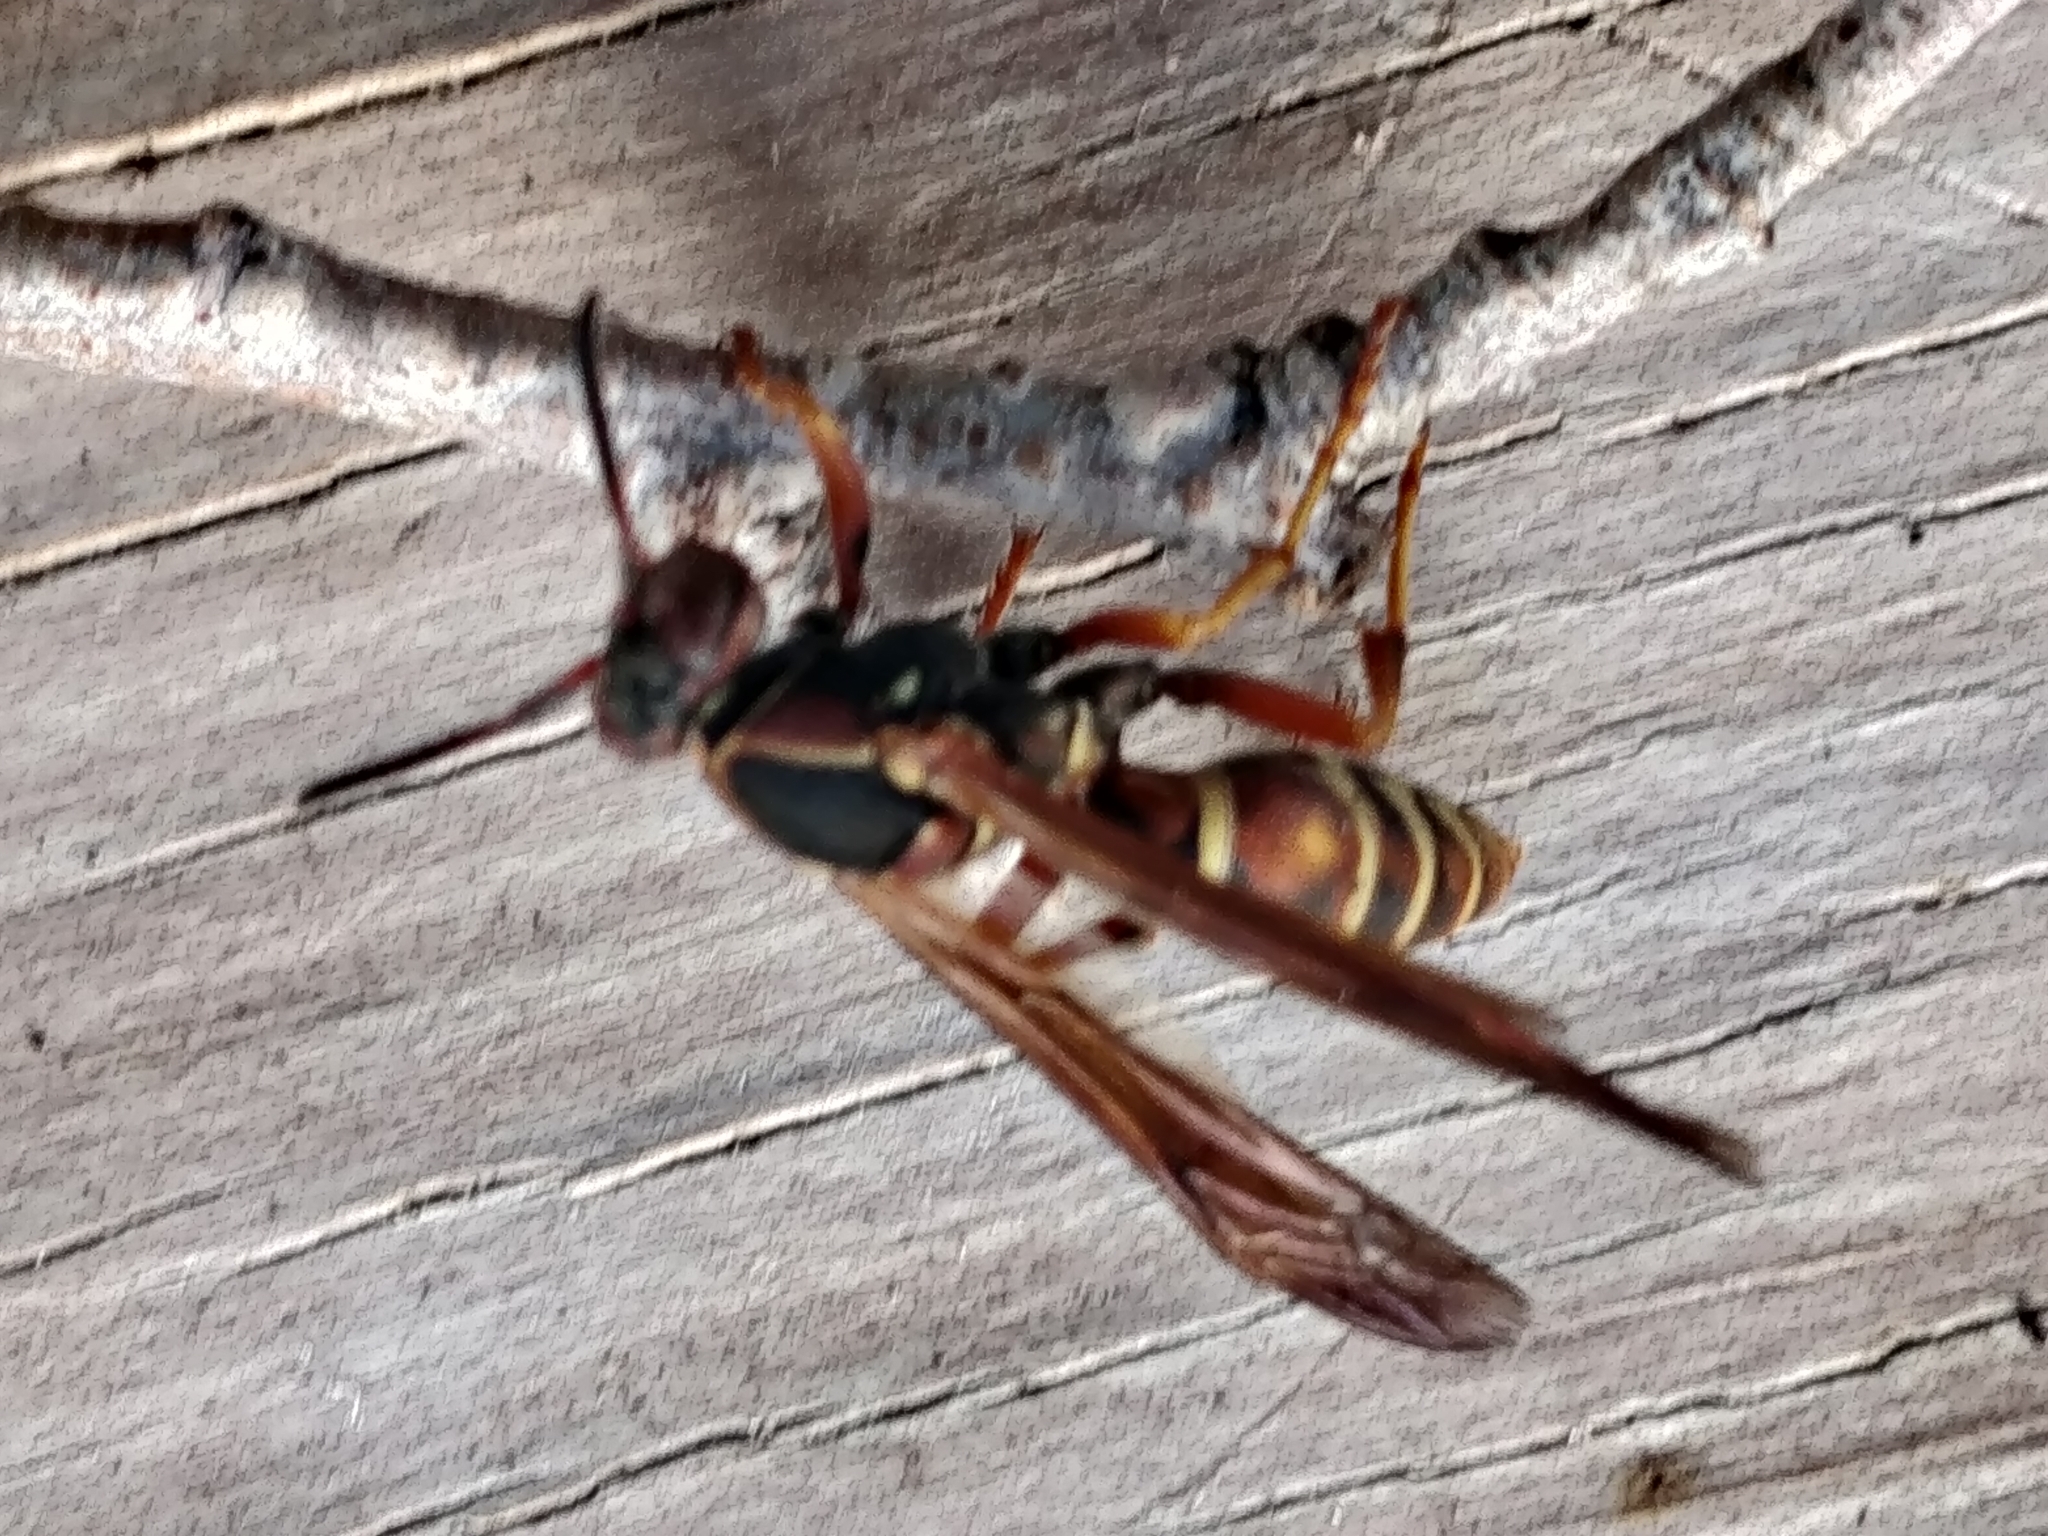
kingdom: Animalia
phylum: Arthropoda
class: Insecta
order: Hymenoptera
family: Eumenidae
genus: Polistes
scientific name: Polistes fuscatus
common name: Dark paper wasp
